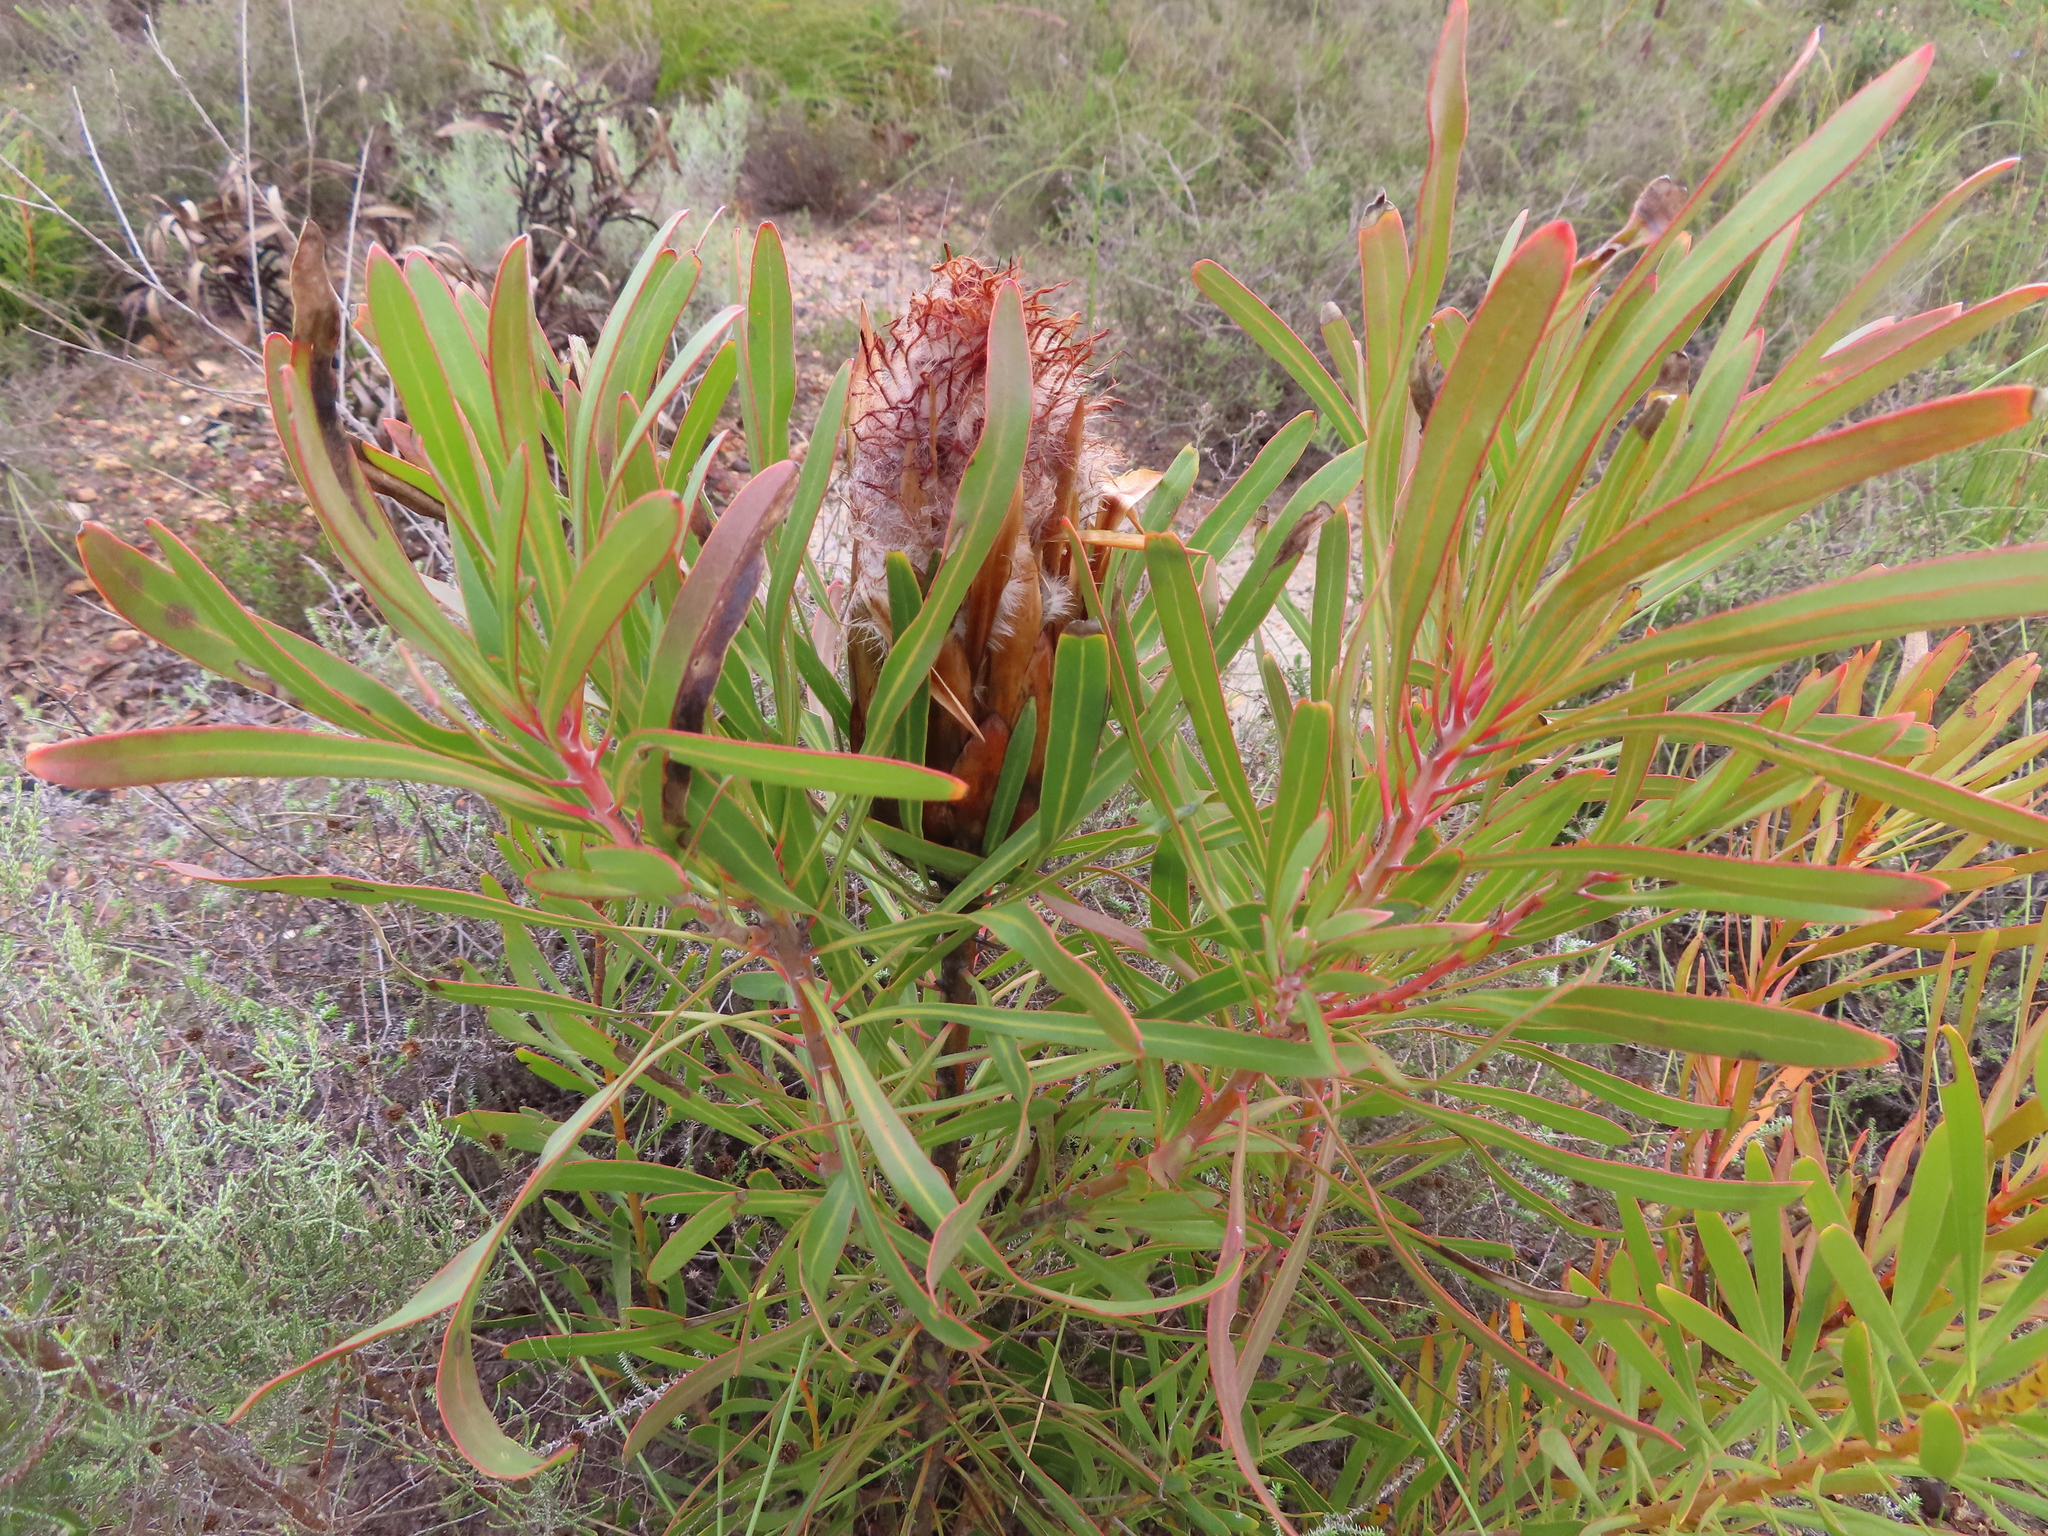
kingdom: Plantae
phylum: Tracheophyta
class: Magnoliopsida
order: Proteales
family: Proteaceae
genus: Protea
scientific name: Protea longifolia
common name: Long-leaf sugarbush
